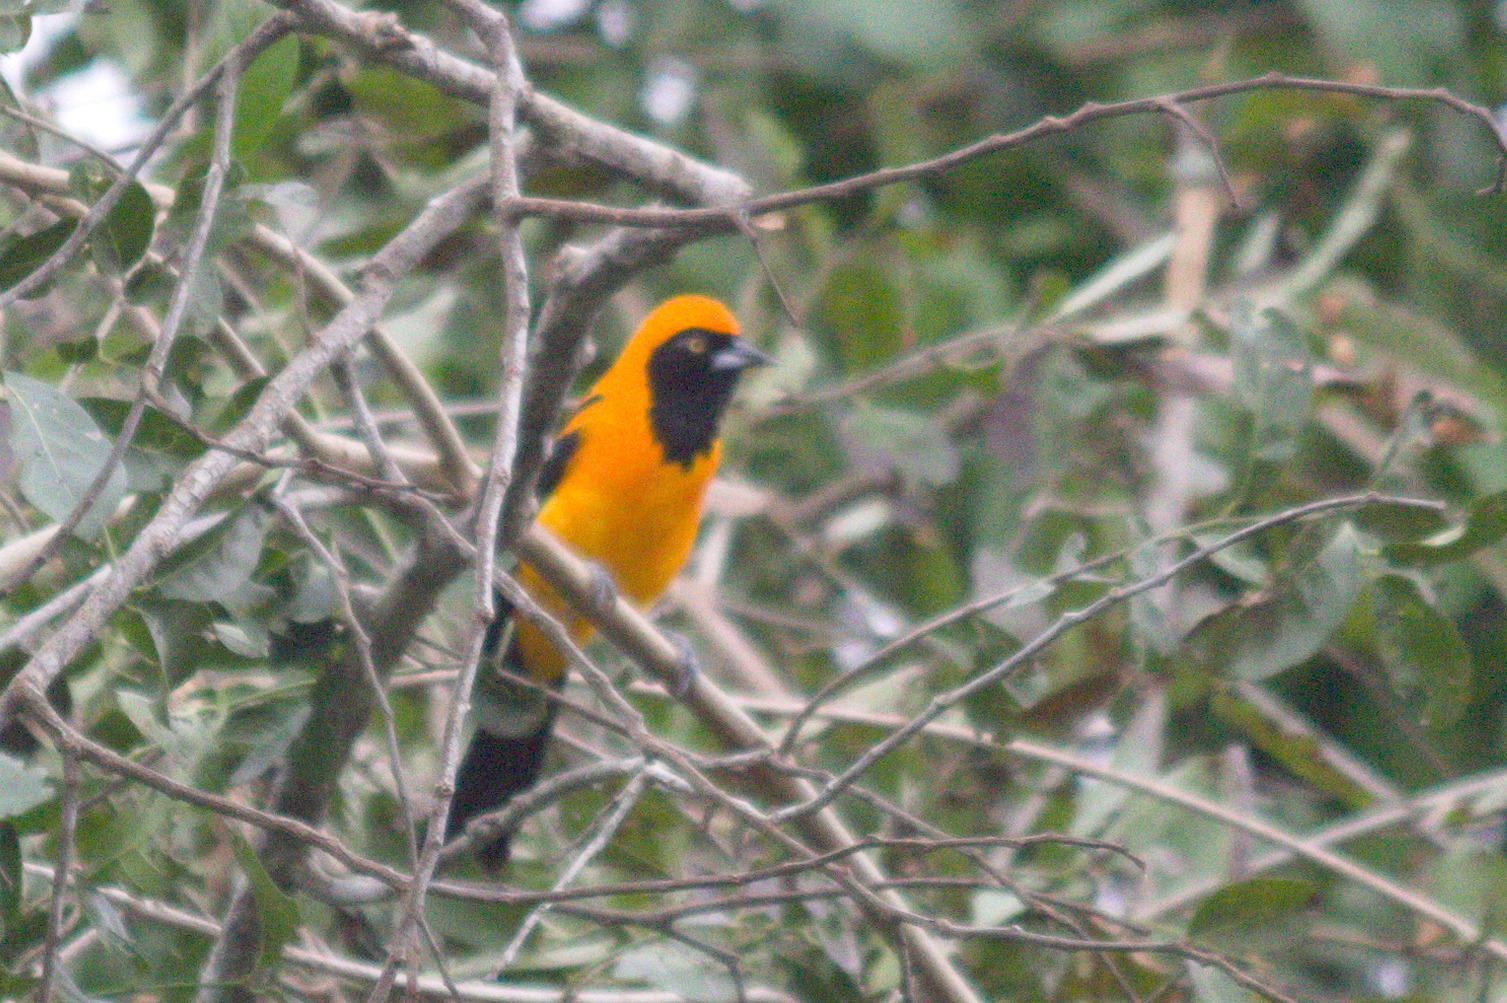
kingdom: Animalia
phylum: Chordata
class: Aves
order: Passeriformes
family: Icteridae
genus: Icterus
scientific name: Icterus icterus
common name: Venezuelan troupial
